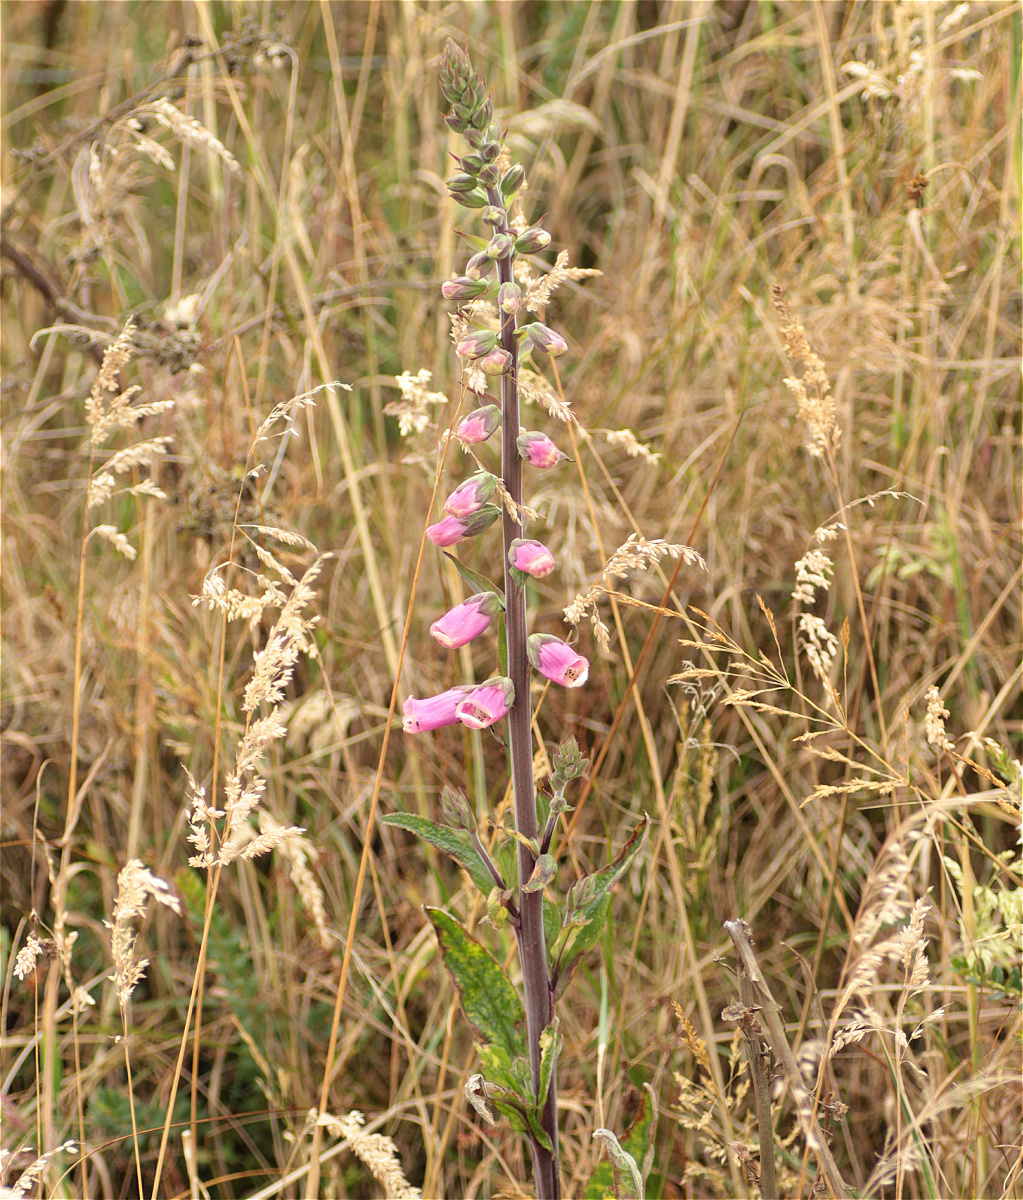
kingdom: Plantae
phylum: Tracheophyta
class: Magnoliopsida
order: Lamiales
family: Plantaginaceae
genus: Digitalis
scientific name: Digitalis purpurea
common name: Foxglove
